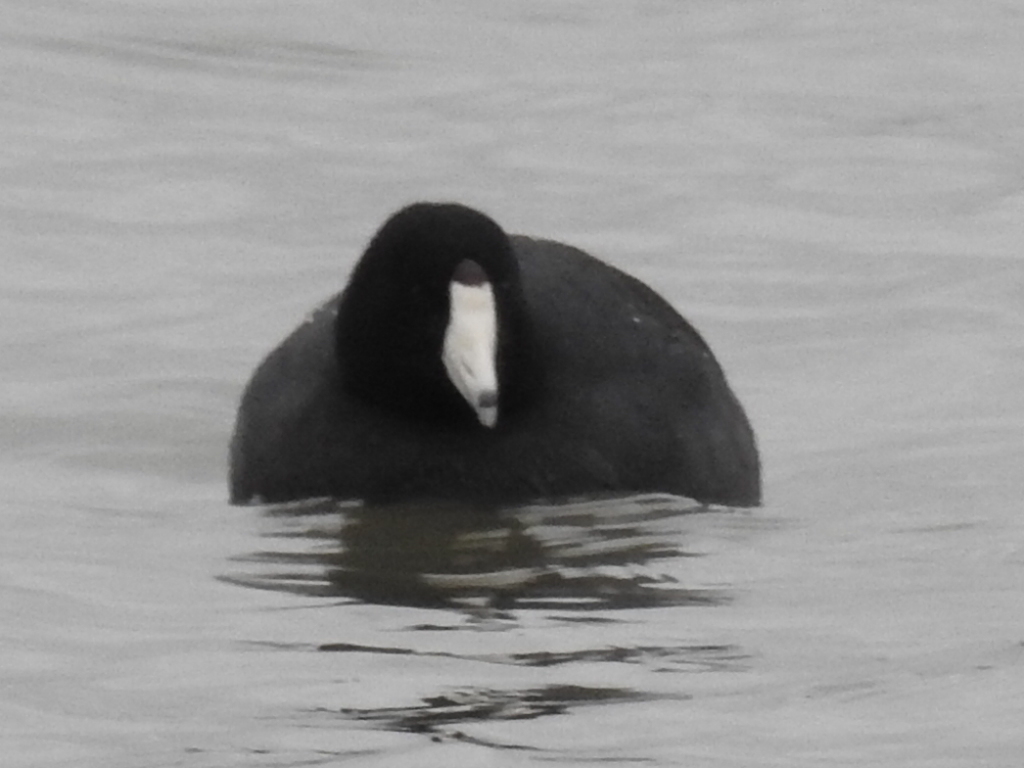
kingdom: Animalia
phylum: Chordata
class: Aves
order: Gruiformes
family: Rallidae
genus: Fulica
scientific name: Fulica americana
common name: American coot
